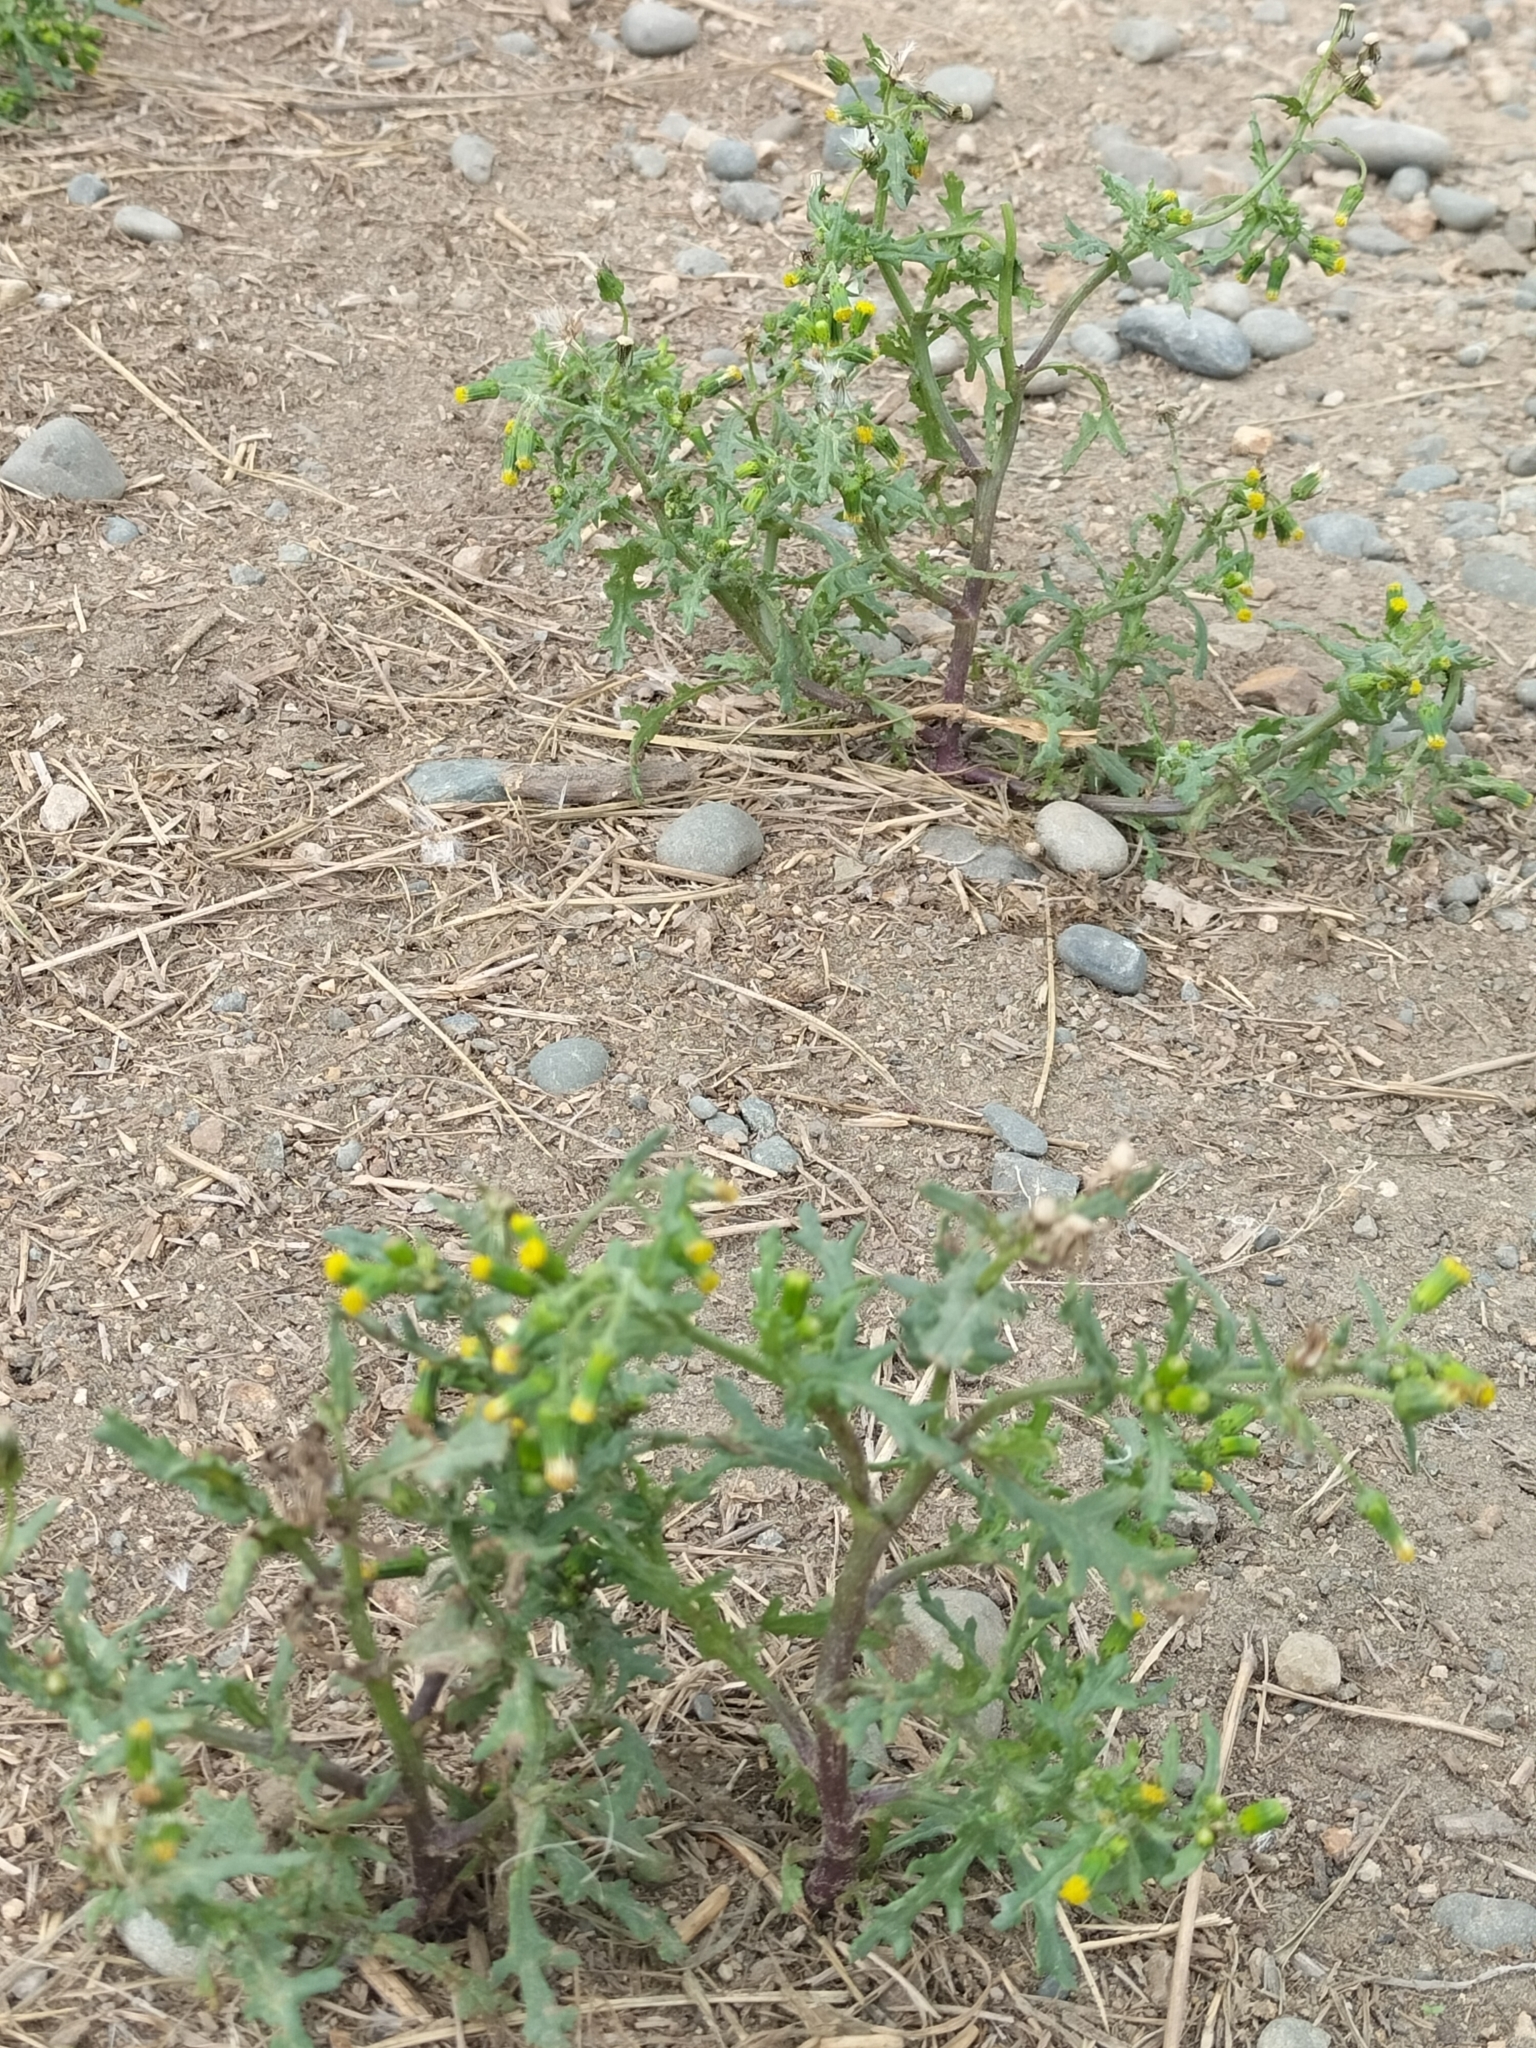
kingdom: Plantae
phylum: Tracheophyta
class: Magnoliopsida
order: Asterales
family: Asteraceae
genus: Senecio
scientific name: Senecio vulgaris
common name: Old-man-in-the-spring
